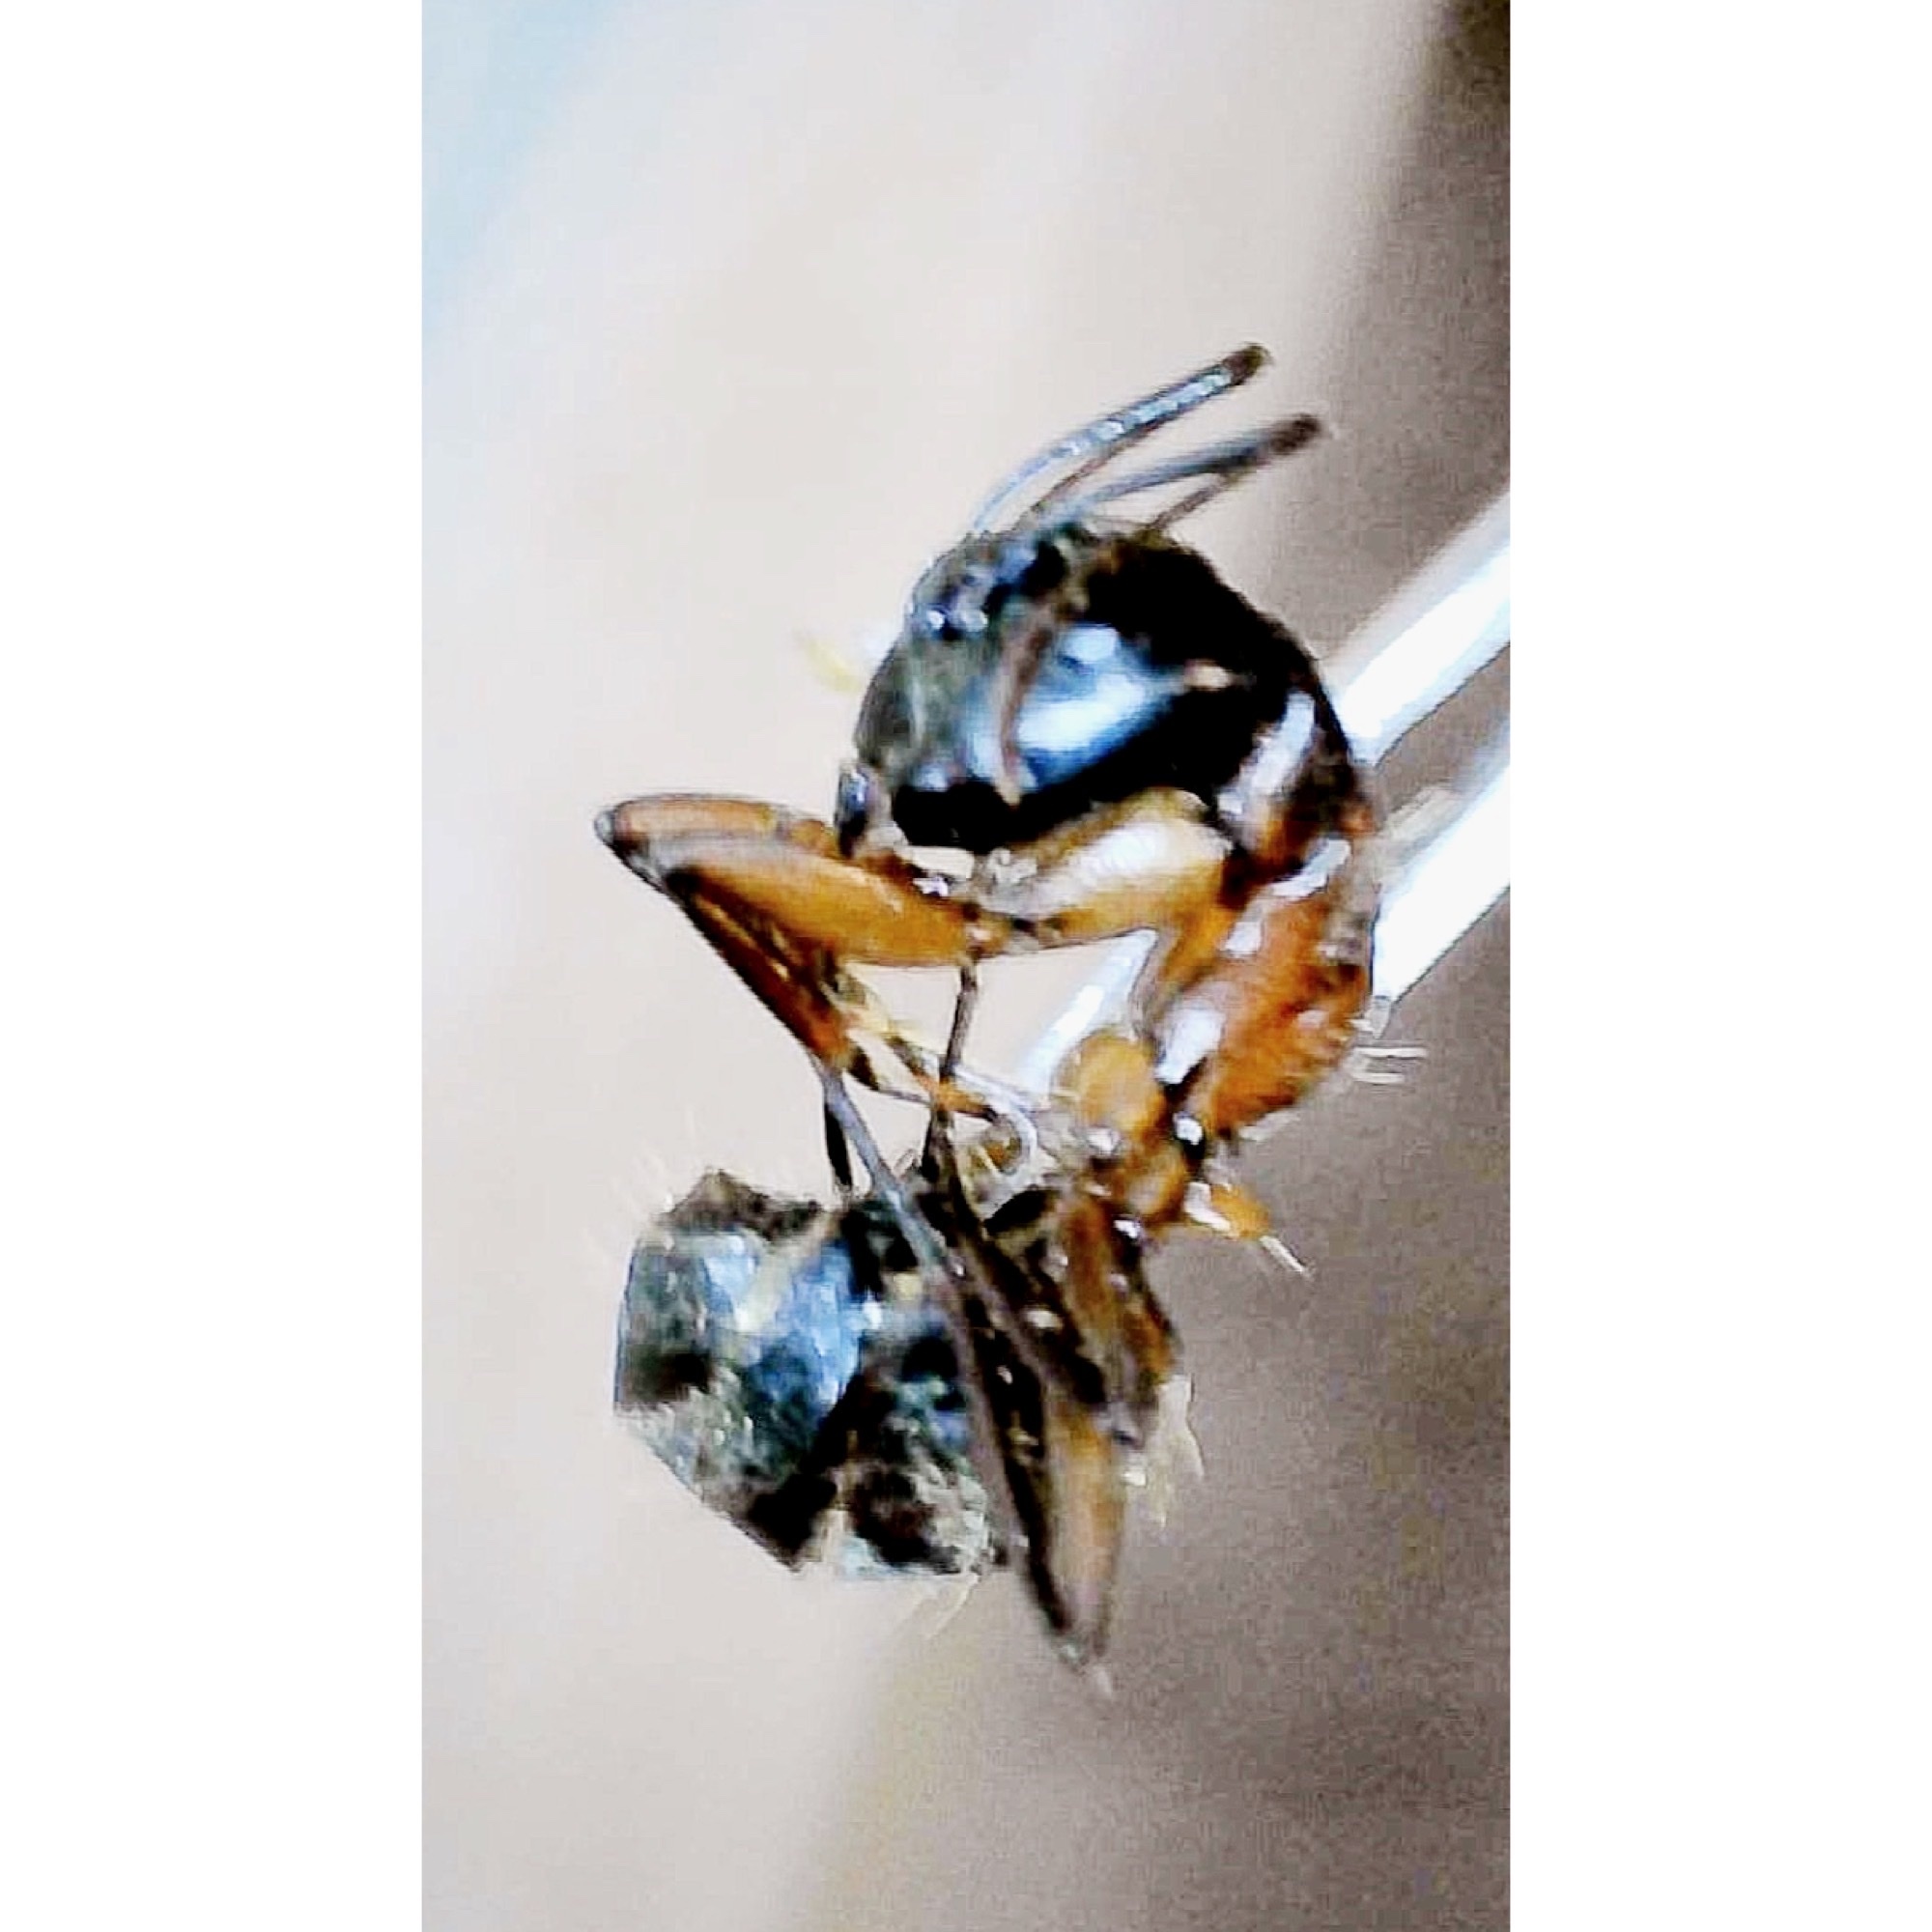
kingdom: Animalia
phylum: Arthropoda
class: Insecta
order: Hymenoptera
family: Formicidae
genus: Camponotus
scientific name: Camponotus chromaiodes
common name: Red carpenter ant
